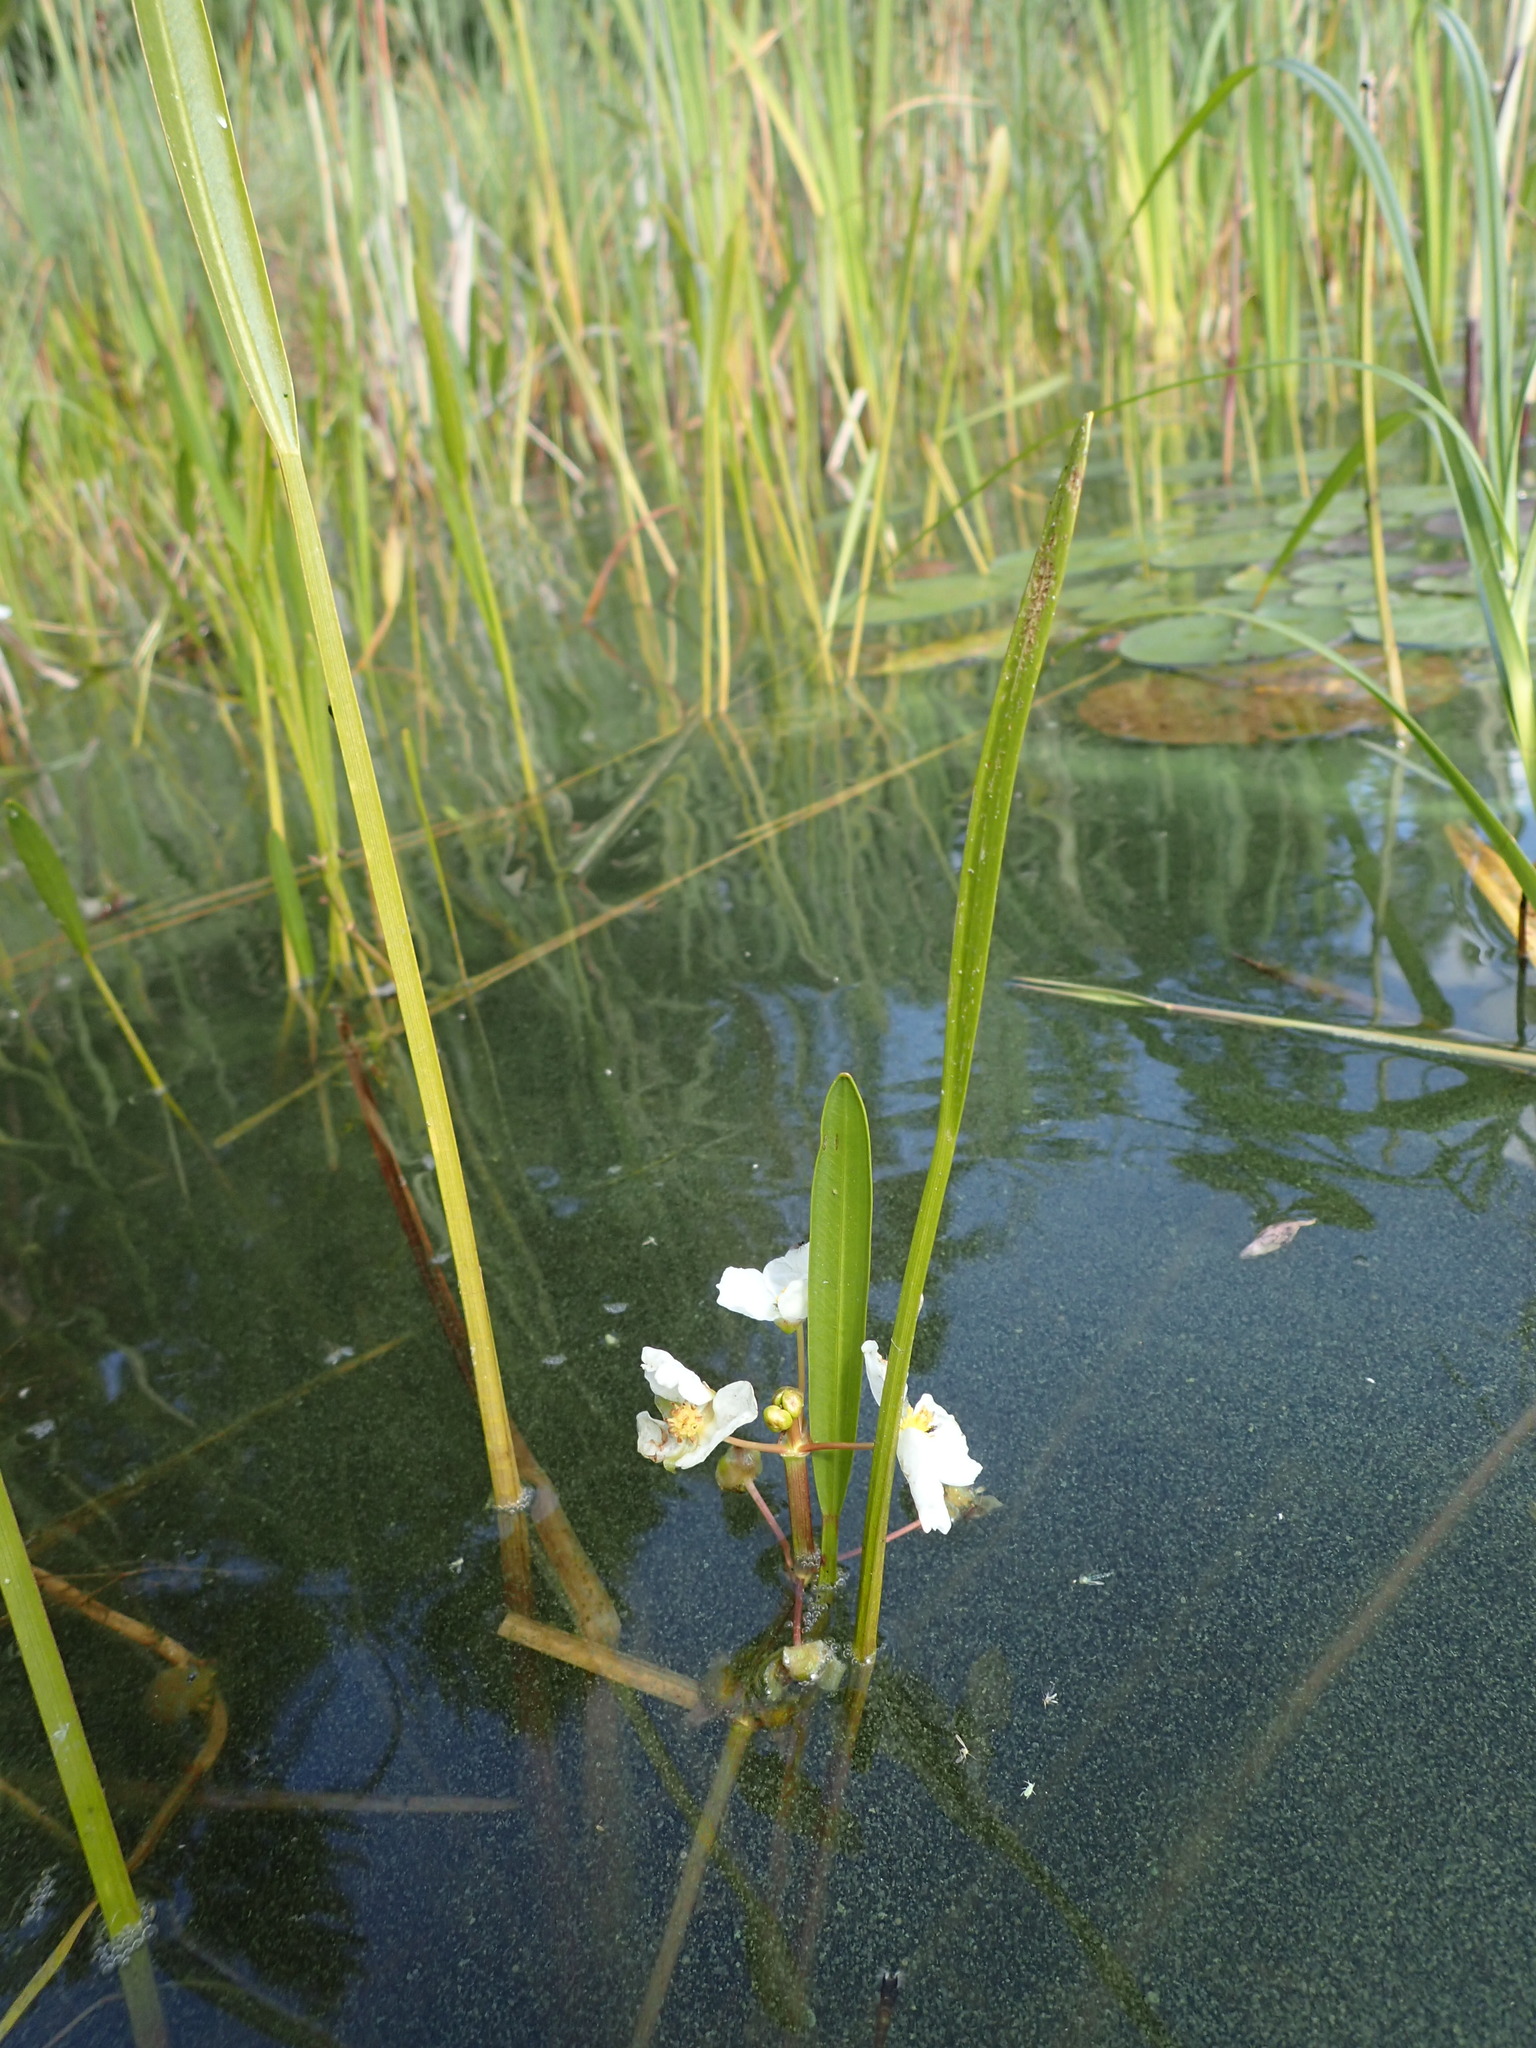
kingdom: Plantae
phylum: Tracheophyta
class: Liliopsida
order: Alismatales
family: Alismataceae
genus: Sagittaria
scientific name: Sagittaria cristata
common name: Crested arrowhead
